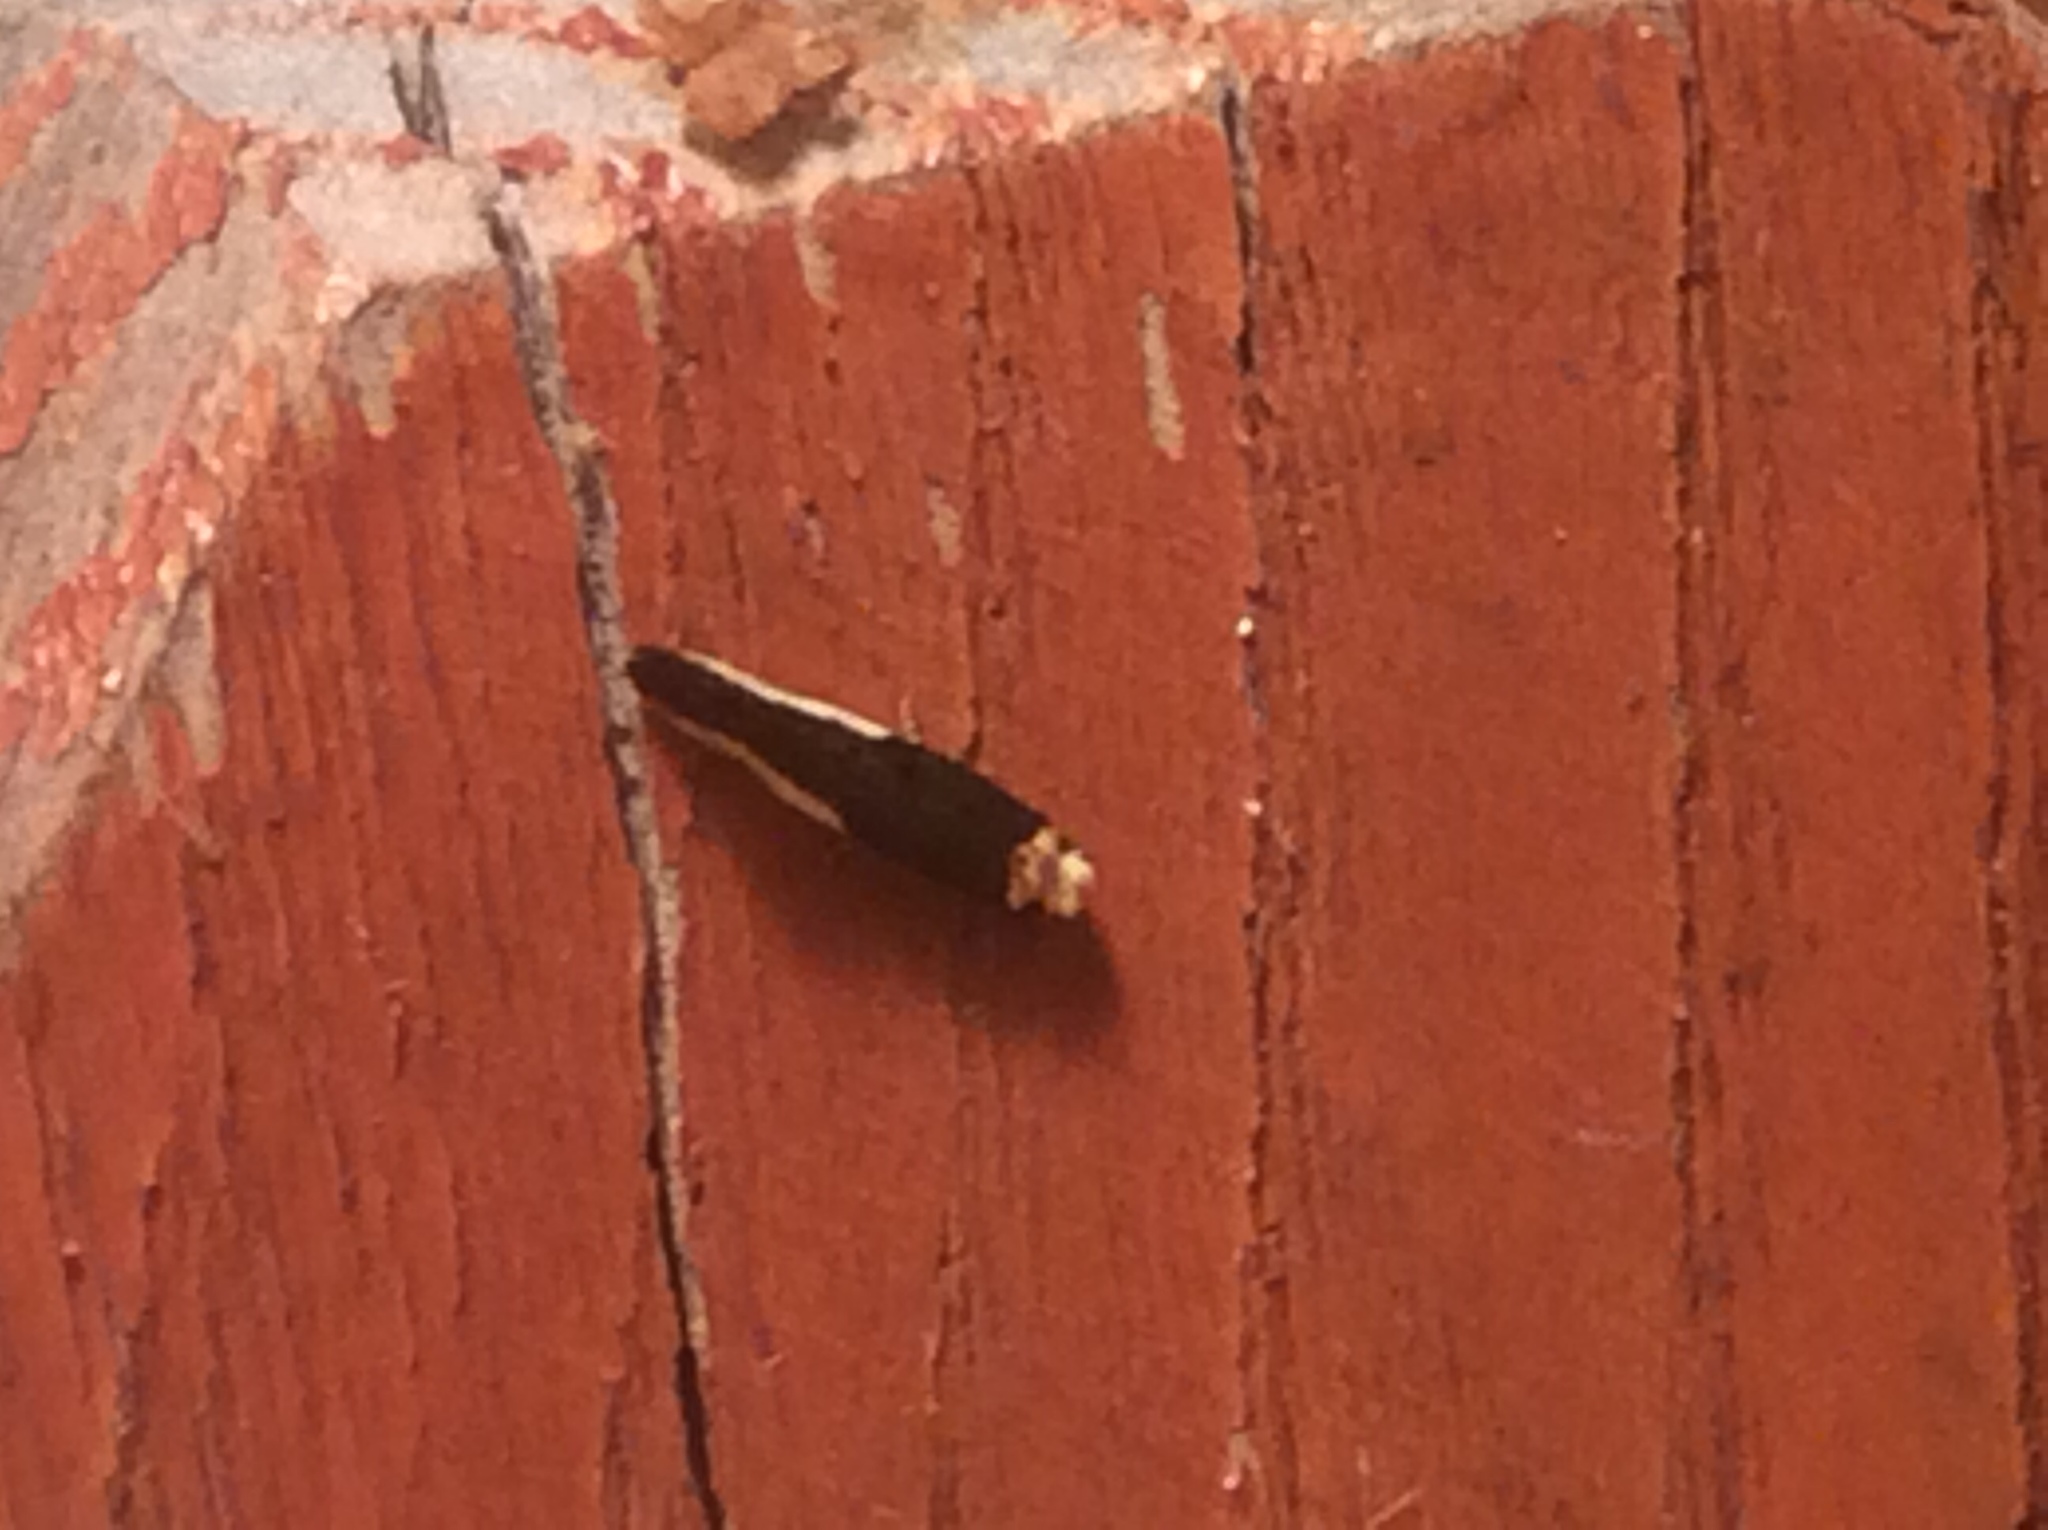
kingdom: Animalia
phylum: Arthropoda
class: Insecta
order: Lepidoptera
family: Tineidae
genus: Monopis
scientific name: Monopis longella
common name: Pavlovski's monopis moth
